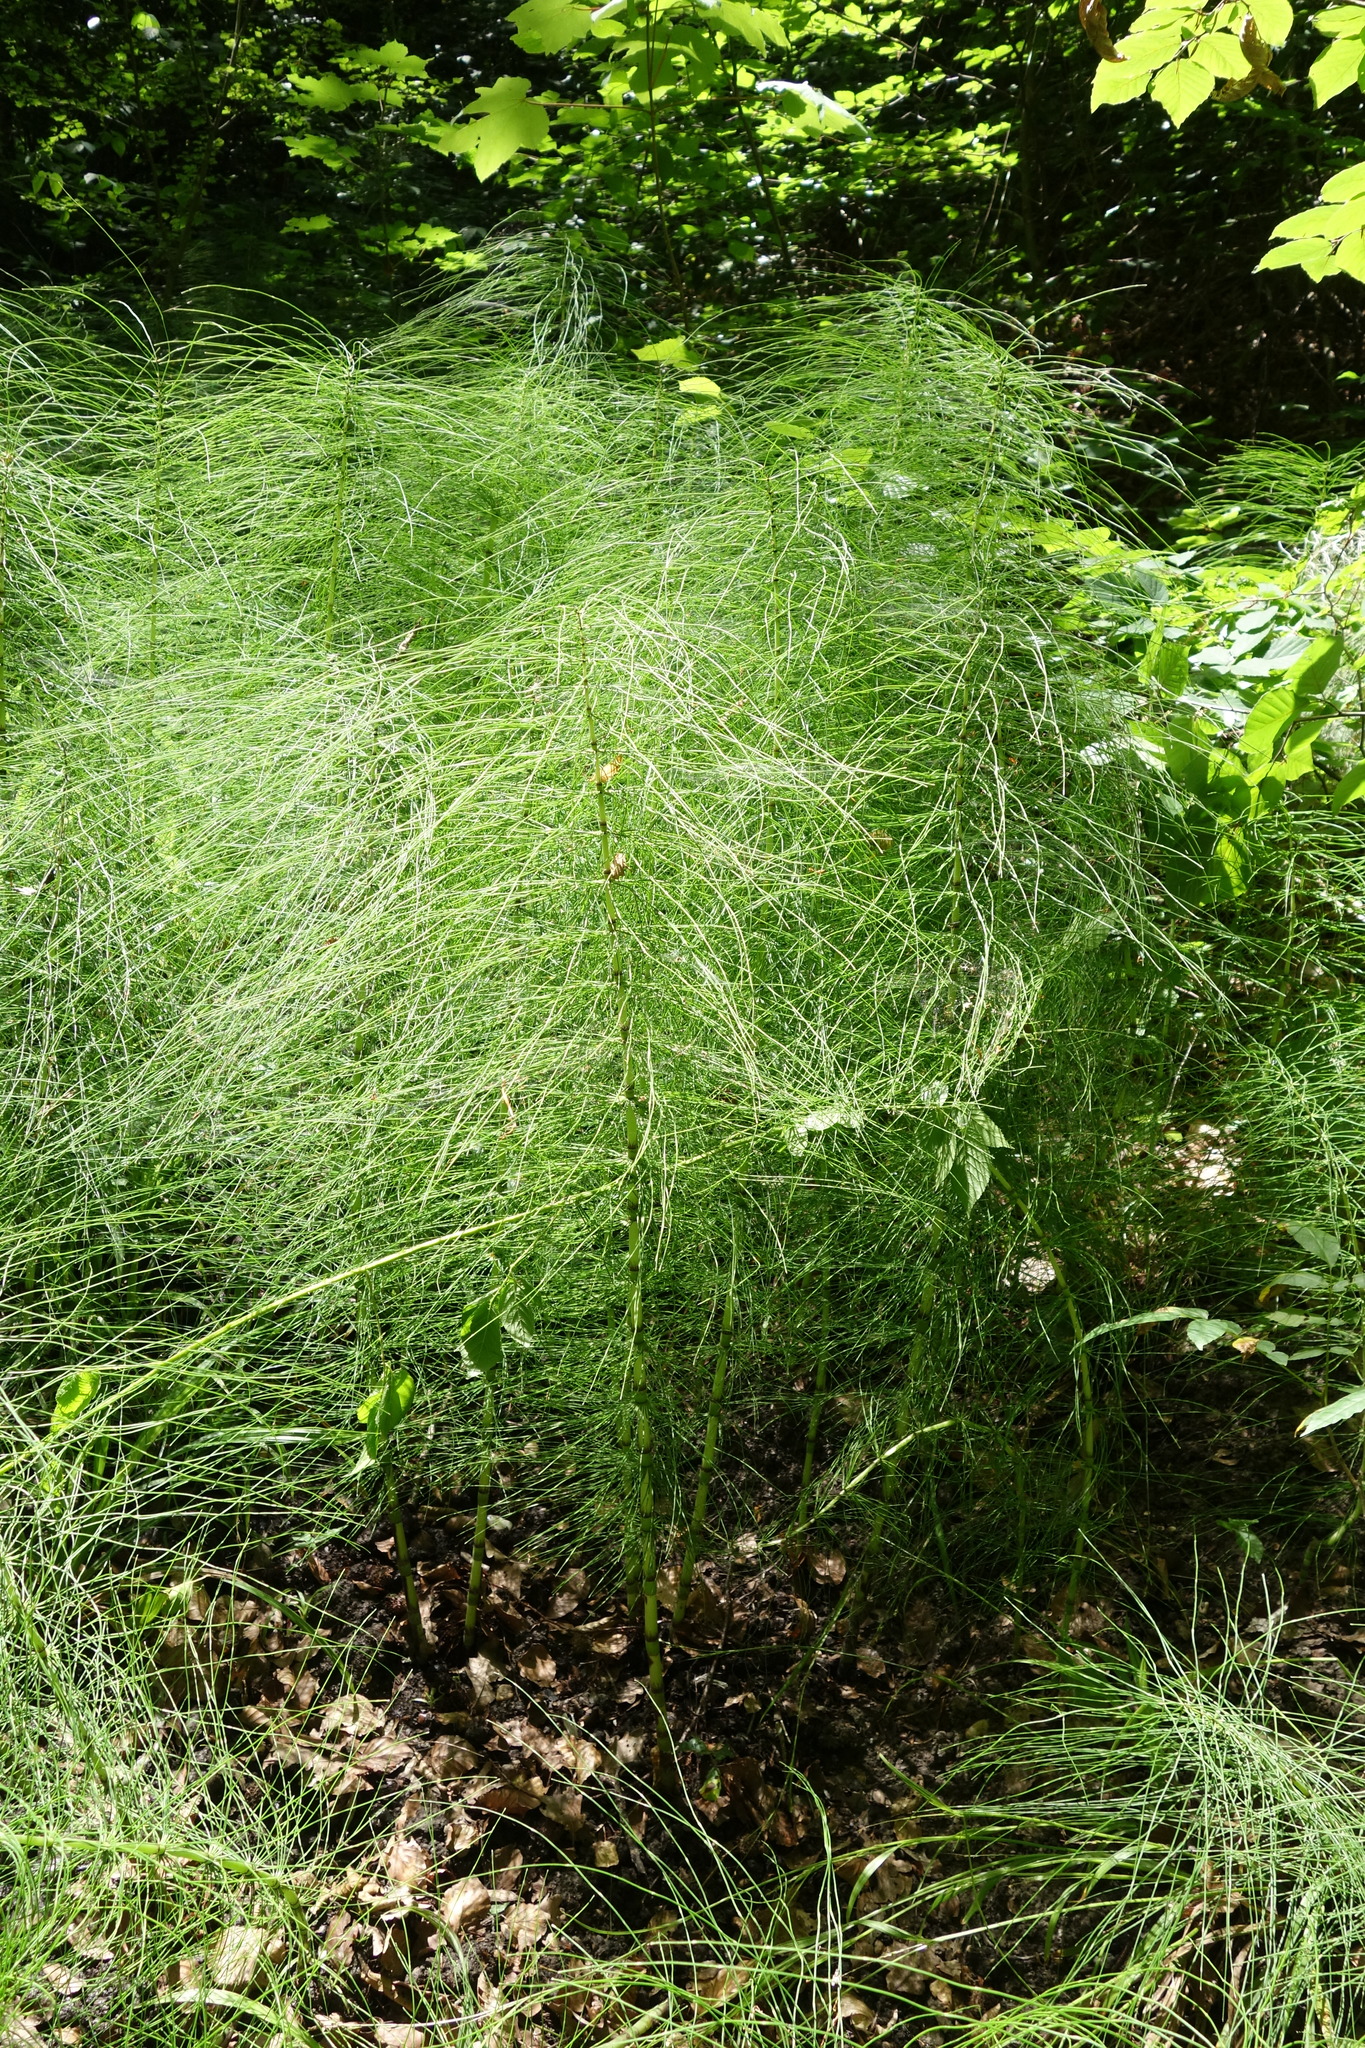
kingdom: Plantae
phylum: Tracheophyta
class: Polypodiopsida
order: Equisetales
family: Equisetaceae
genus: Equisetum
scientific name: Equisetum telmateia
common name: Great horsetail
